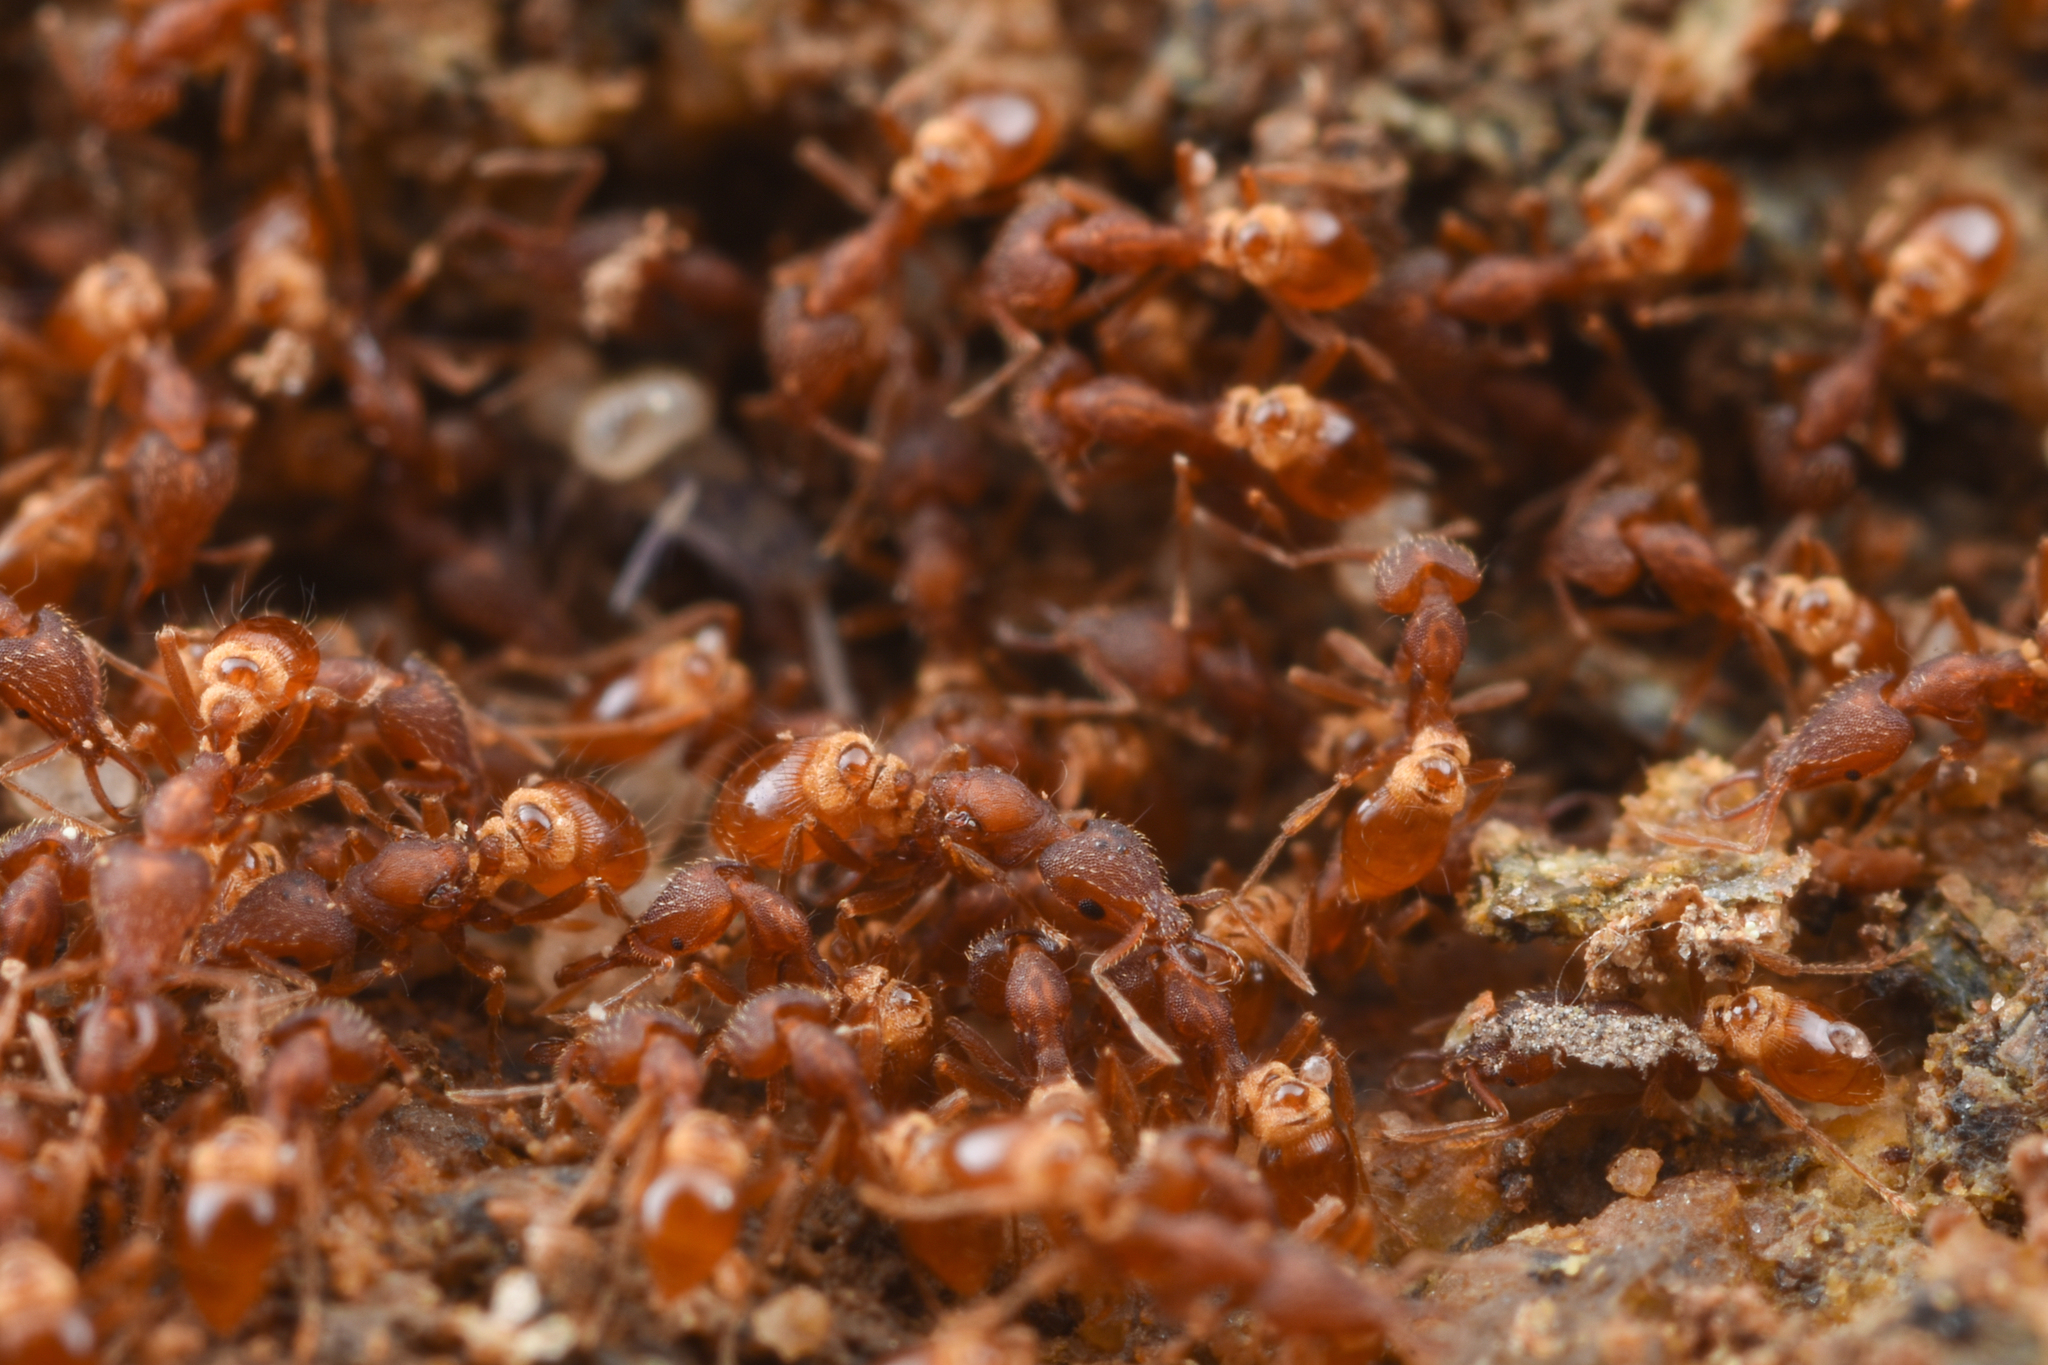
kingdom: Animalia
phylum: Arthropoda
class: Insecta
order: Hymenoptera
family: Formicidae
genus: Strumigenys
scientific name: Strumigenys kumadori
